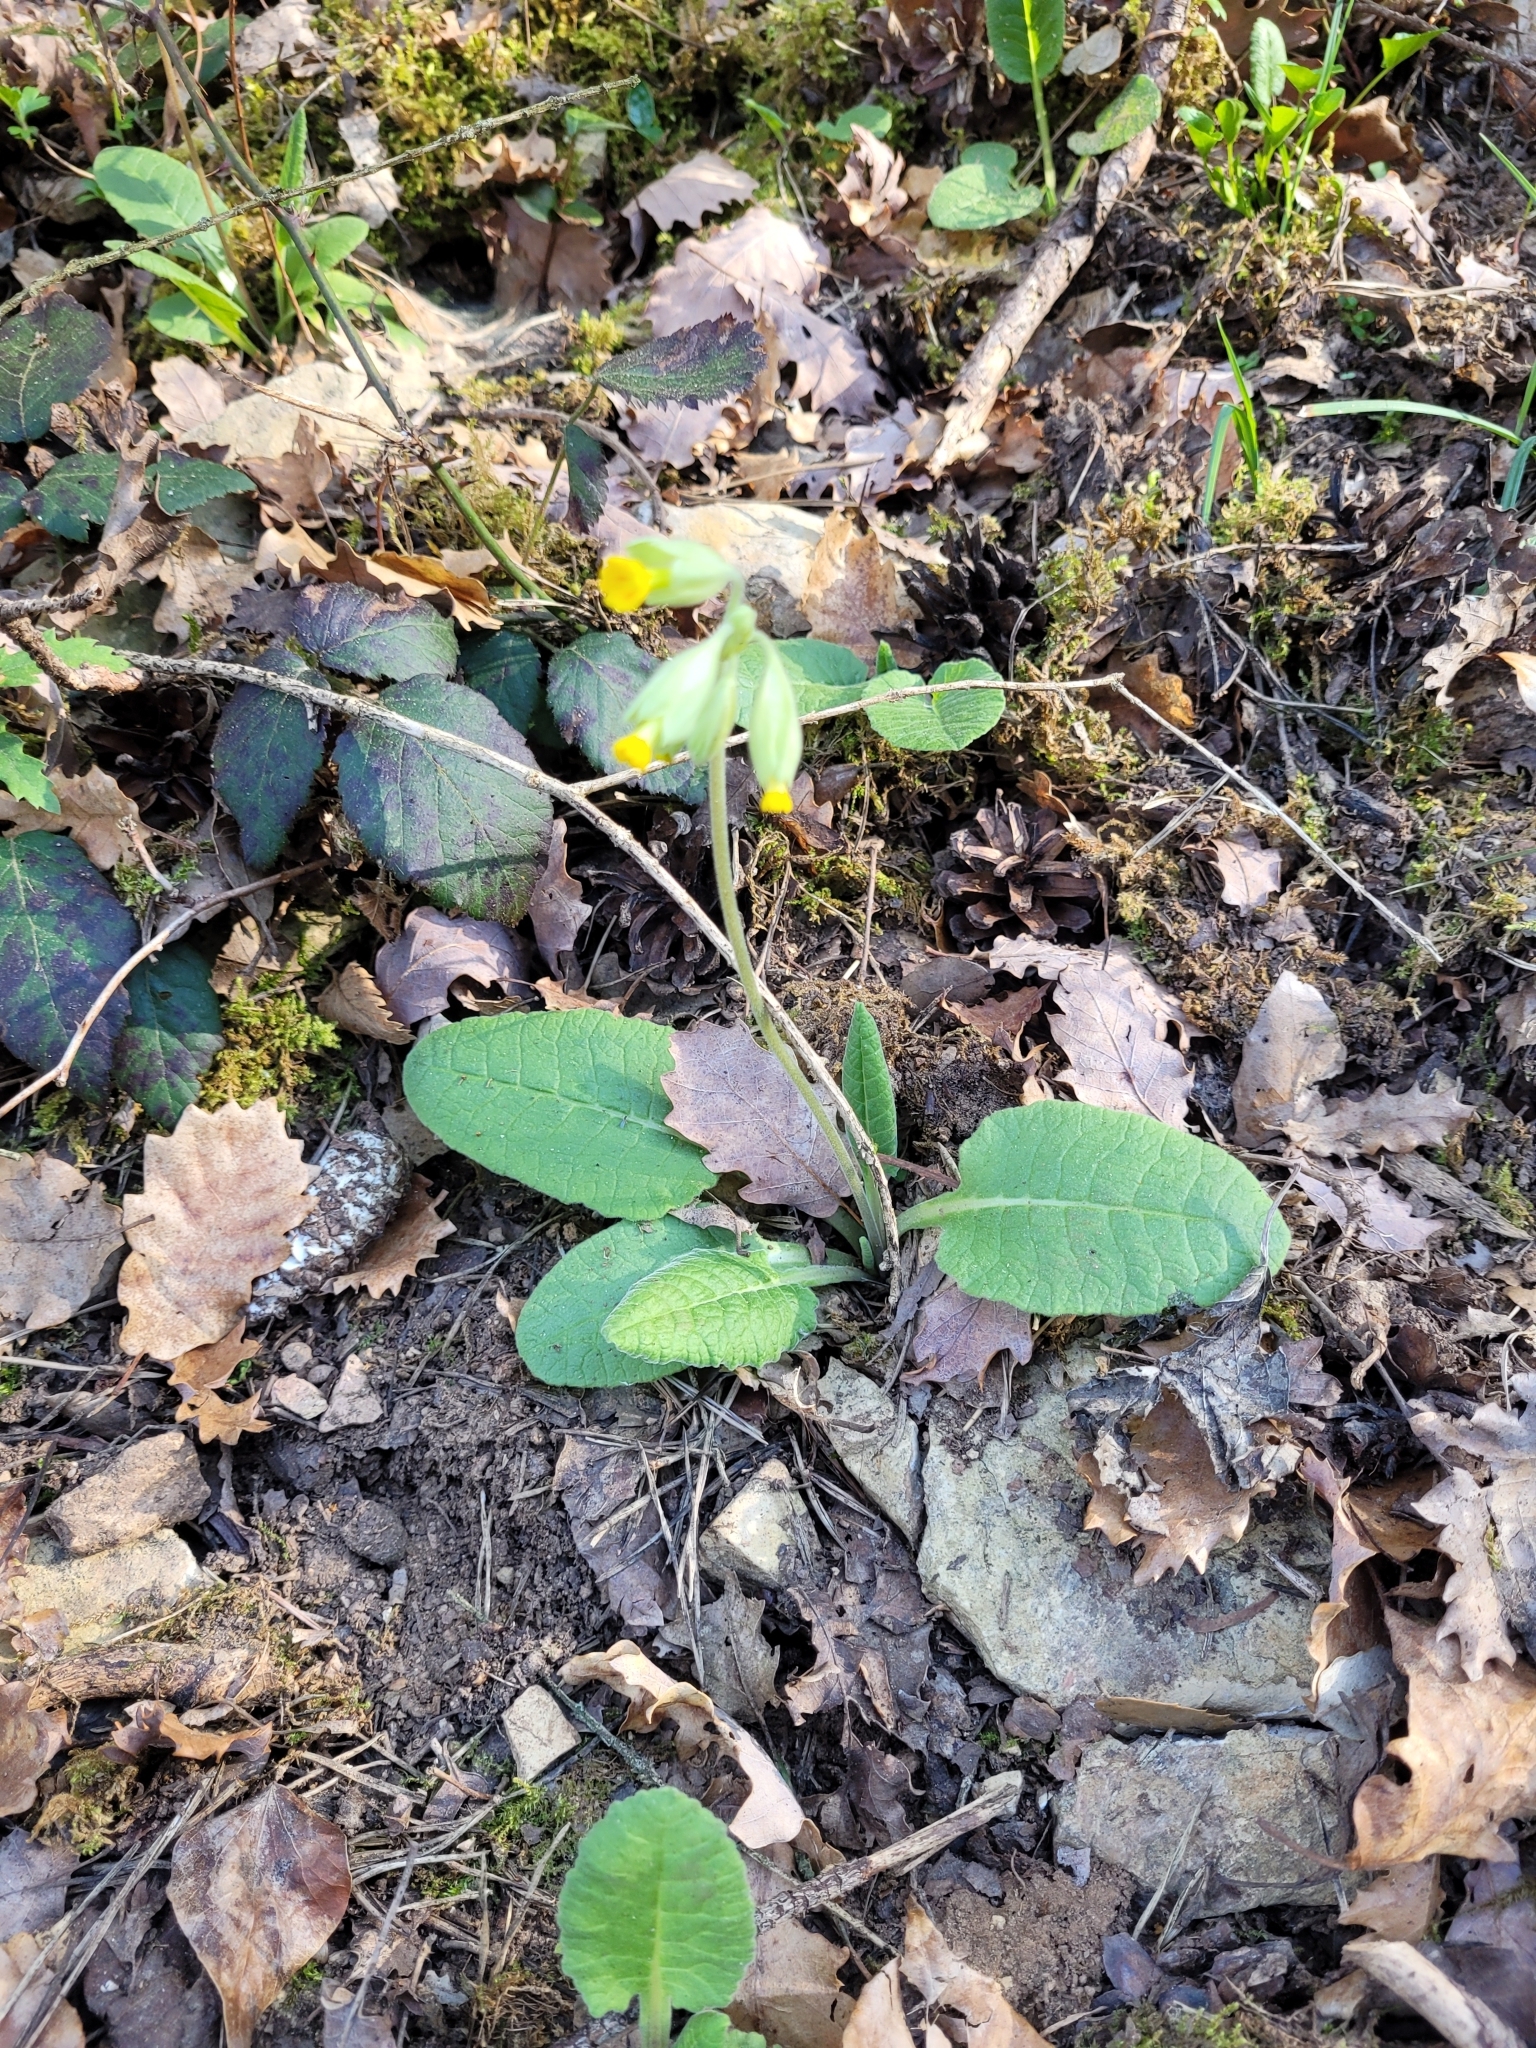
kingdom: Plantae
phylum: Tracheophyta
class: Magnoliopsida
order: Ericales
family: Primulaceae
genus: Primula
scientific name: Primula veris
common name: Cowslip
